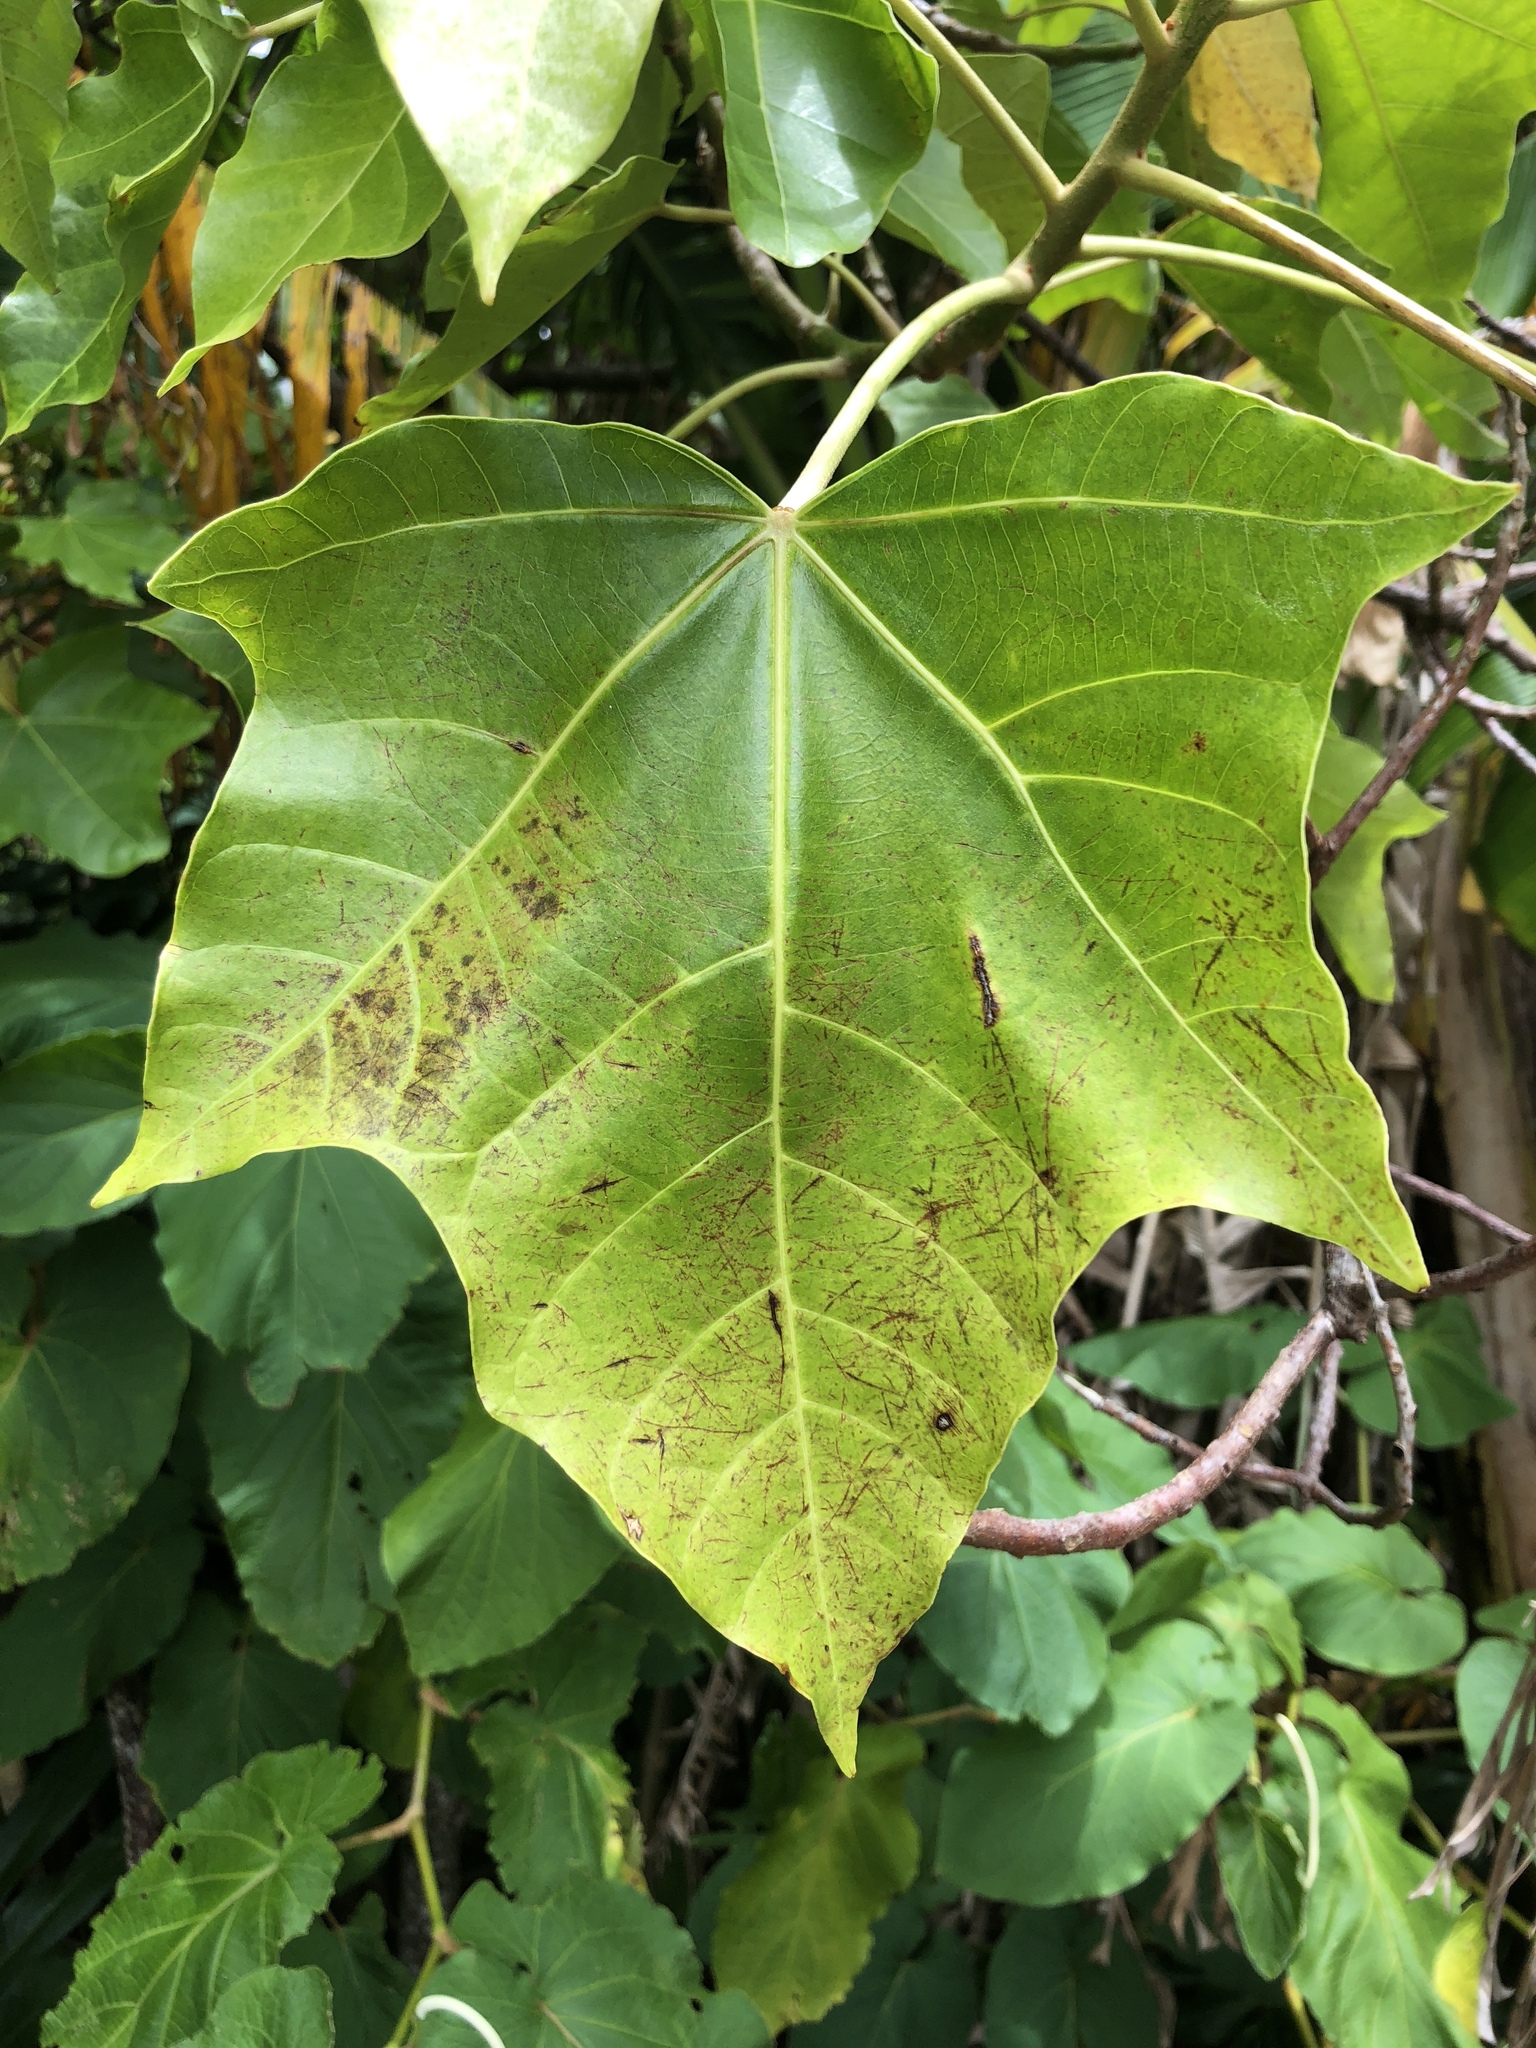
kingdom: Plantae
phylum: Tracheophyta
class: Magnoliopsida
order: Malpighiales
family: Euphorbiaceae
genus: Aleurites
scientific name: Aleurites moluccanus
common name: Candlenut tree
